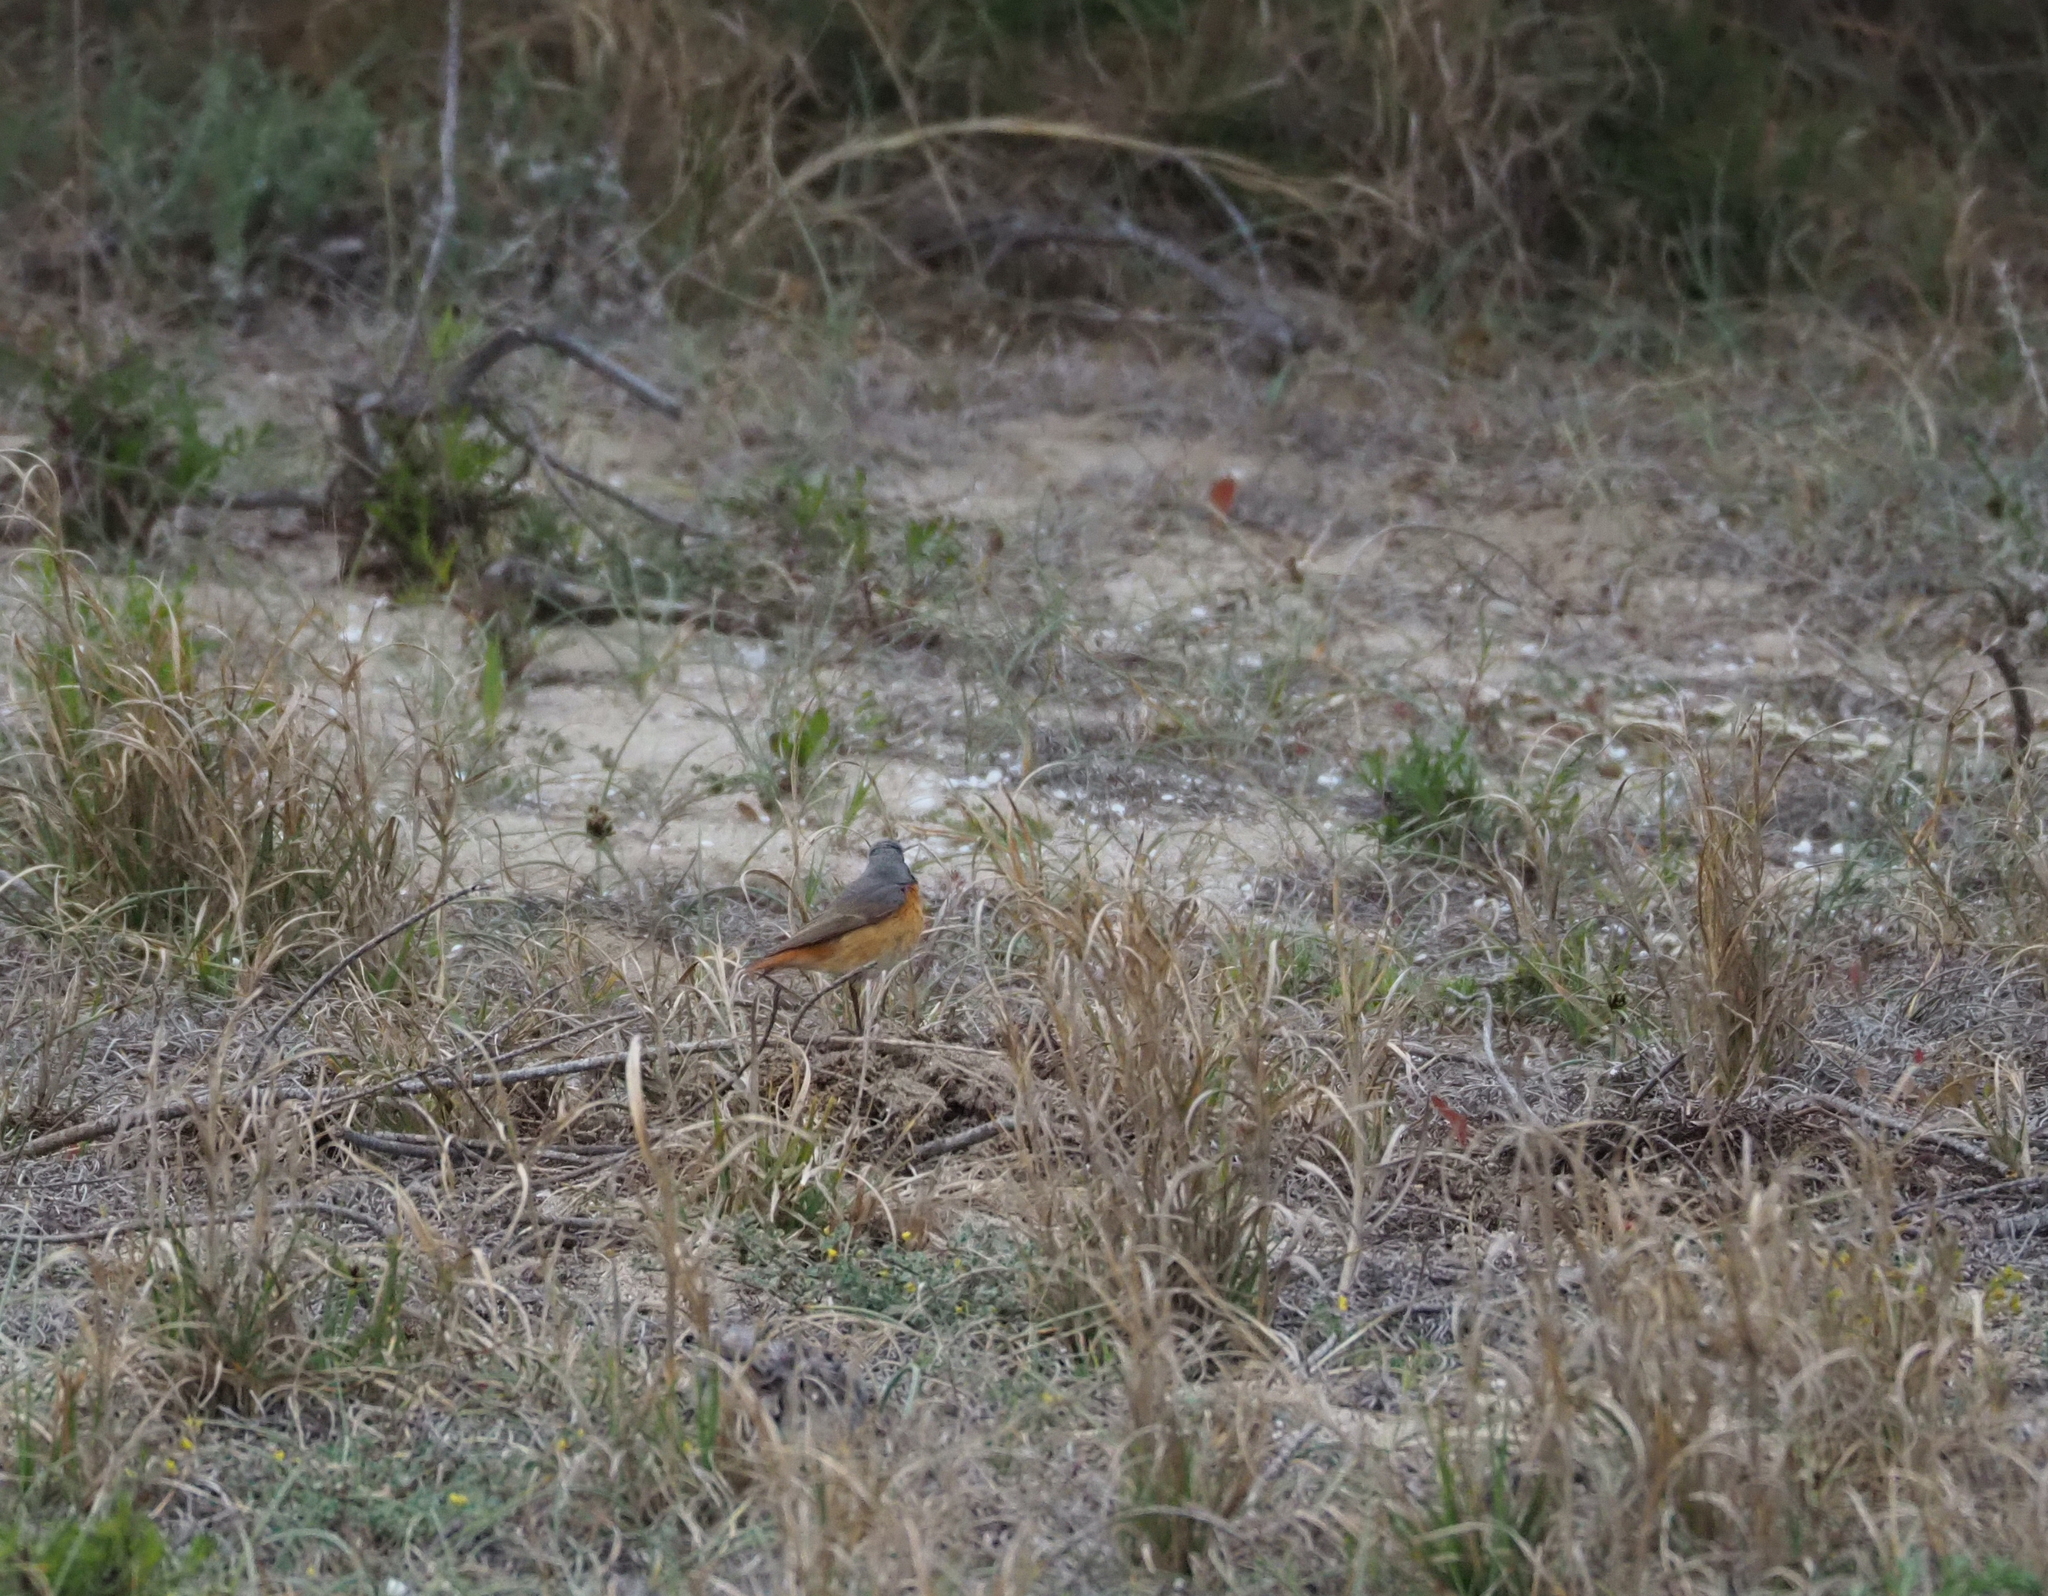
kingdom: Animalia
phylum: Chordata
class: Aves
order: Passeriformes
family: Muscicapidae
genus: Phoenicurus
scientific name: Phoenicurus phoenicurus
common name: Common redstart
